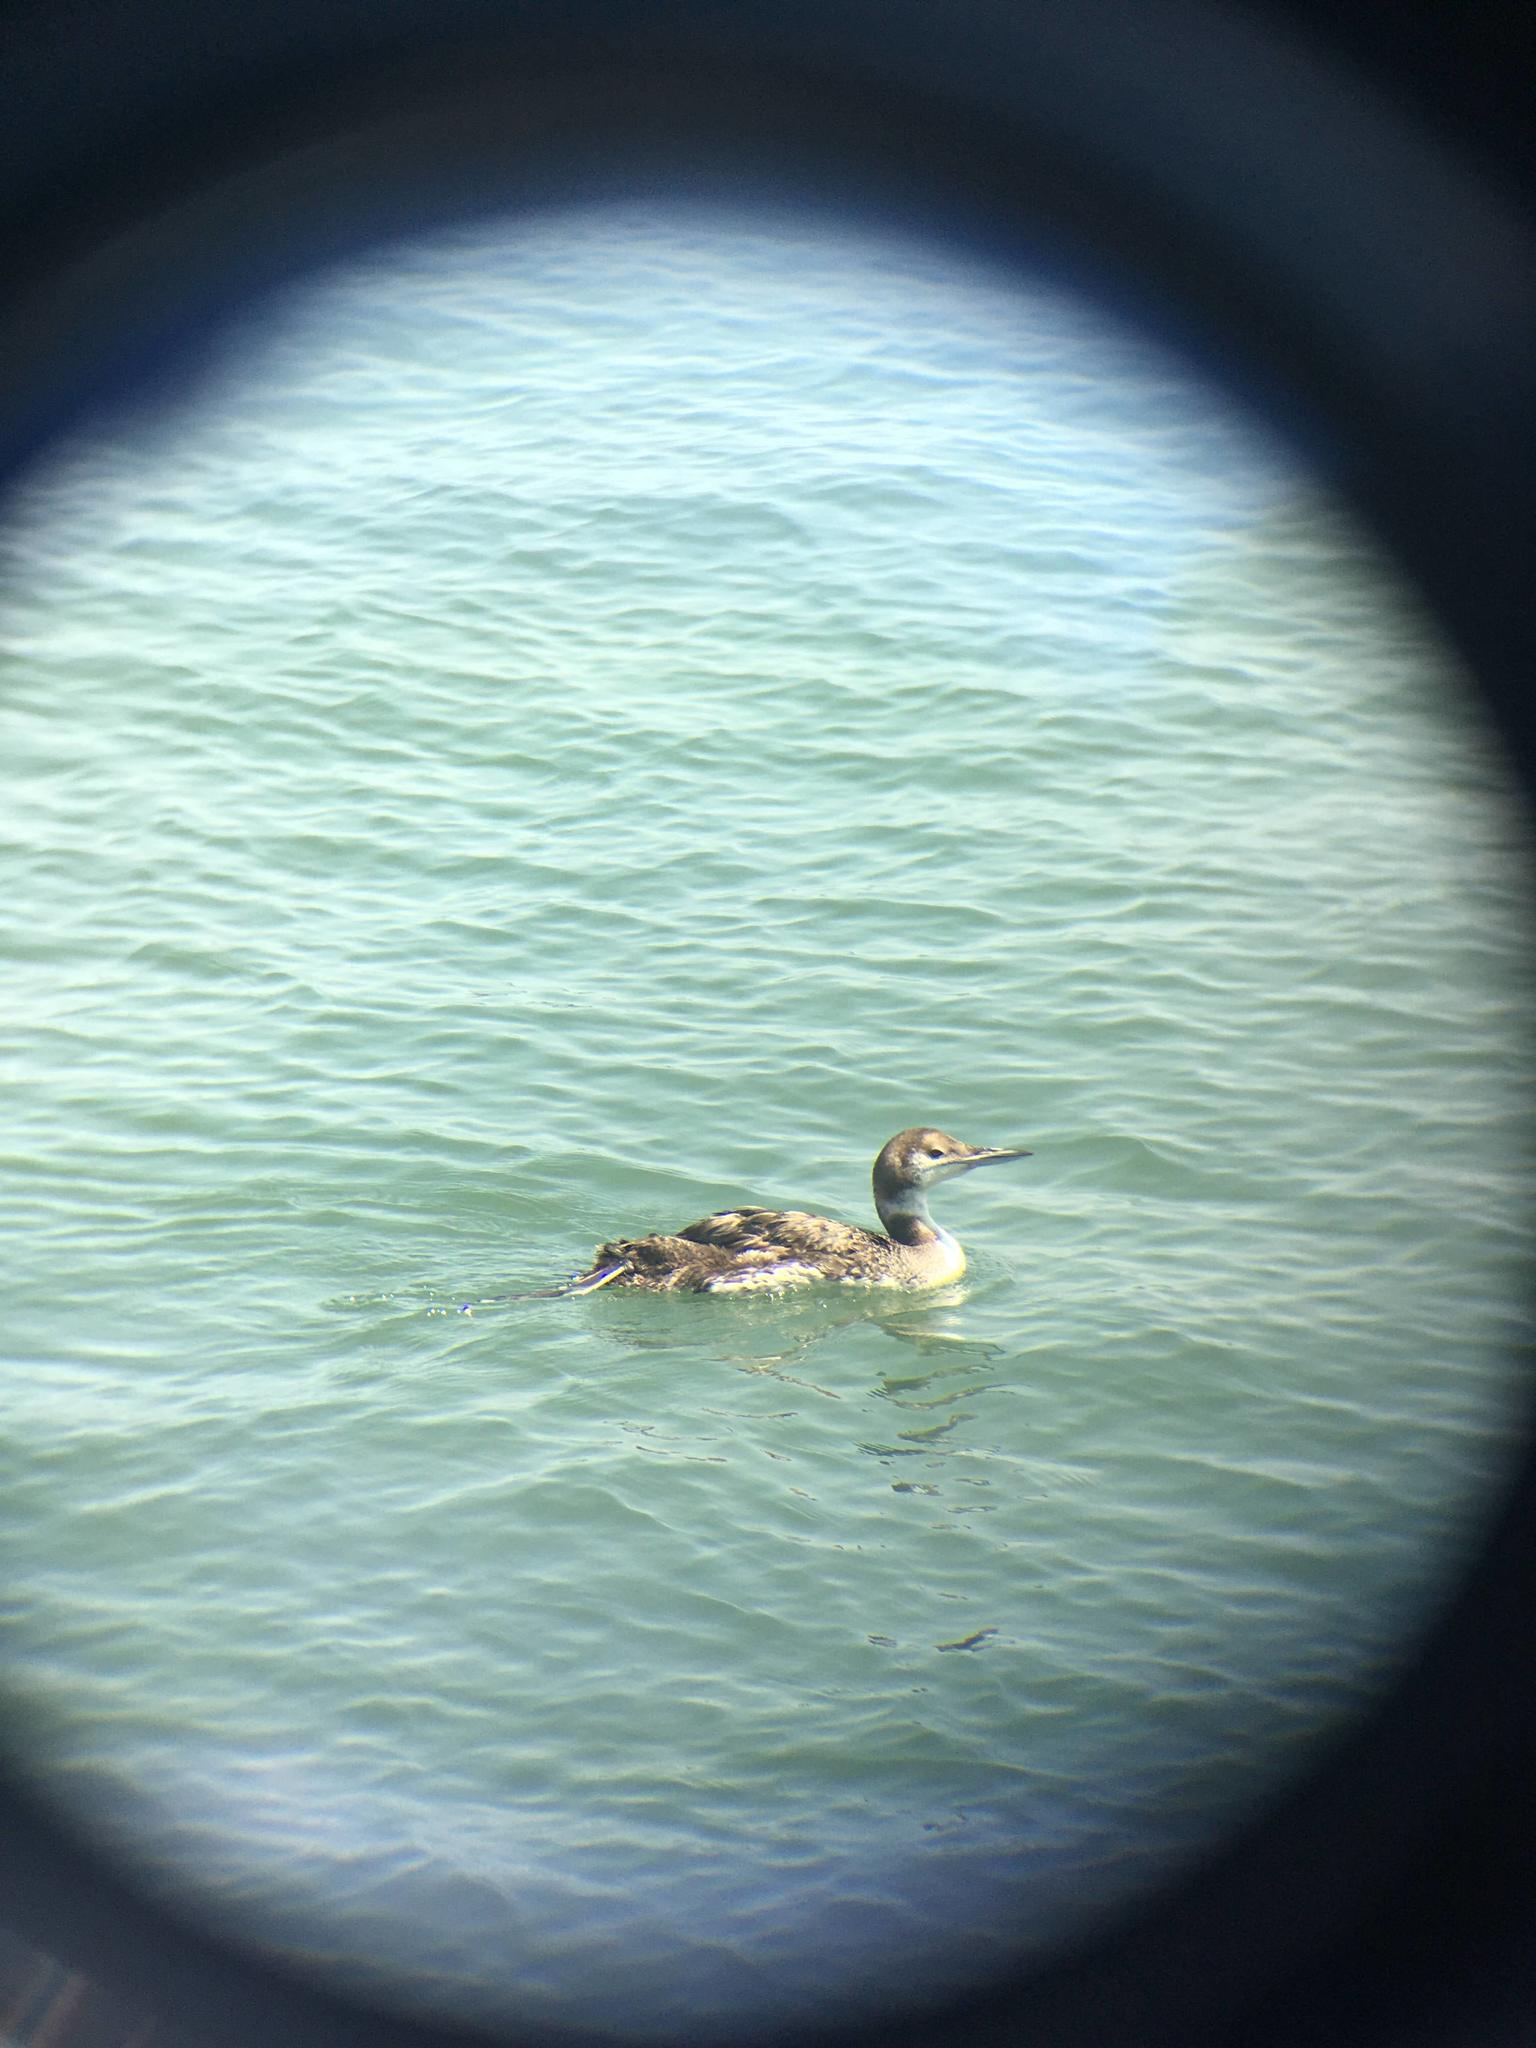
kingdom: Animalia
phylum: Chordata
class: Aves
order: Gaviiformes
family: Gaviidae
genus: Gavia
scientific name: Gavia immer
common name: Common loon
